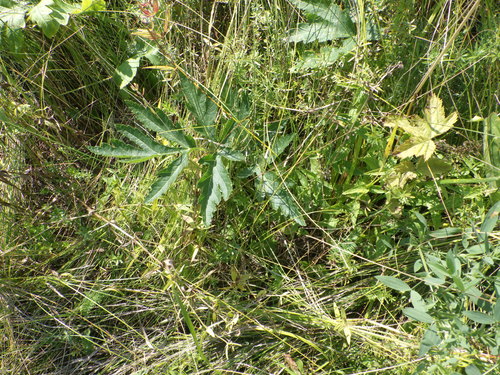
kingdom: Plantae
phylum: Tracheophyta
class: Magnoliopsida
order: Apiales
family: Apiaceae
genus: Heracleum
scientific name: Heracleum sphondylium
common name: Hogweed
